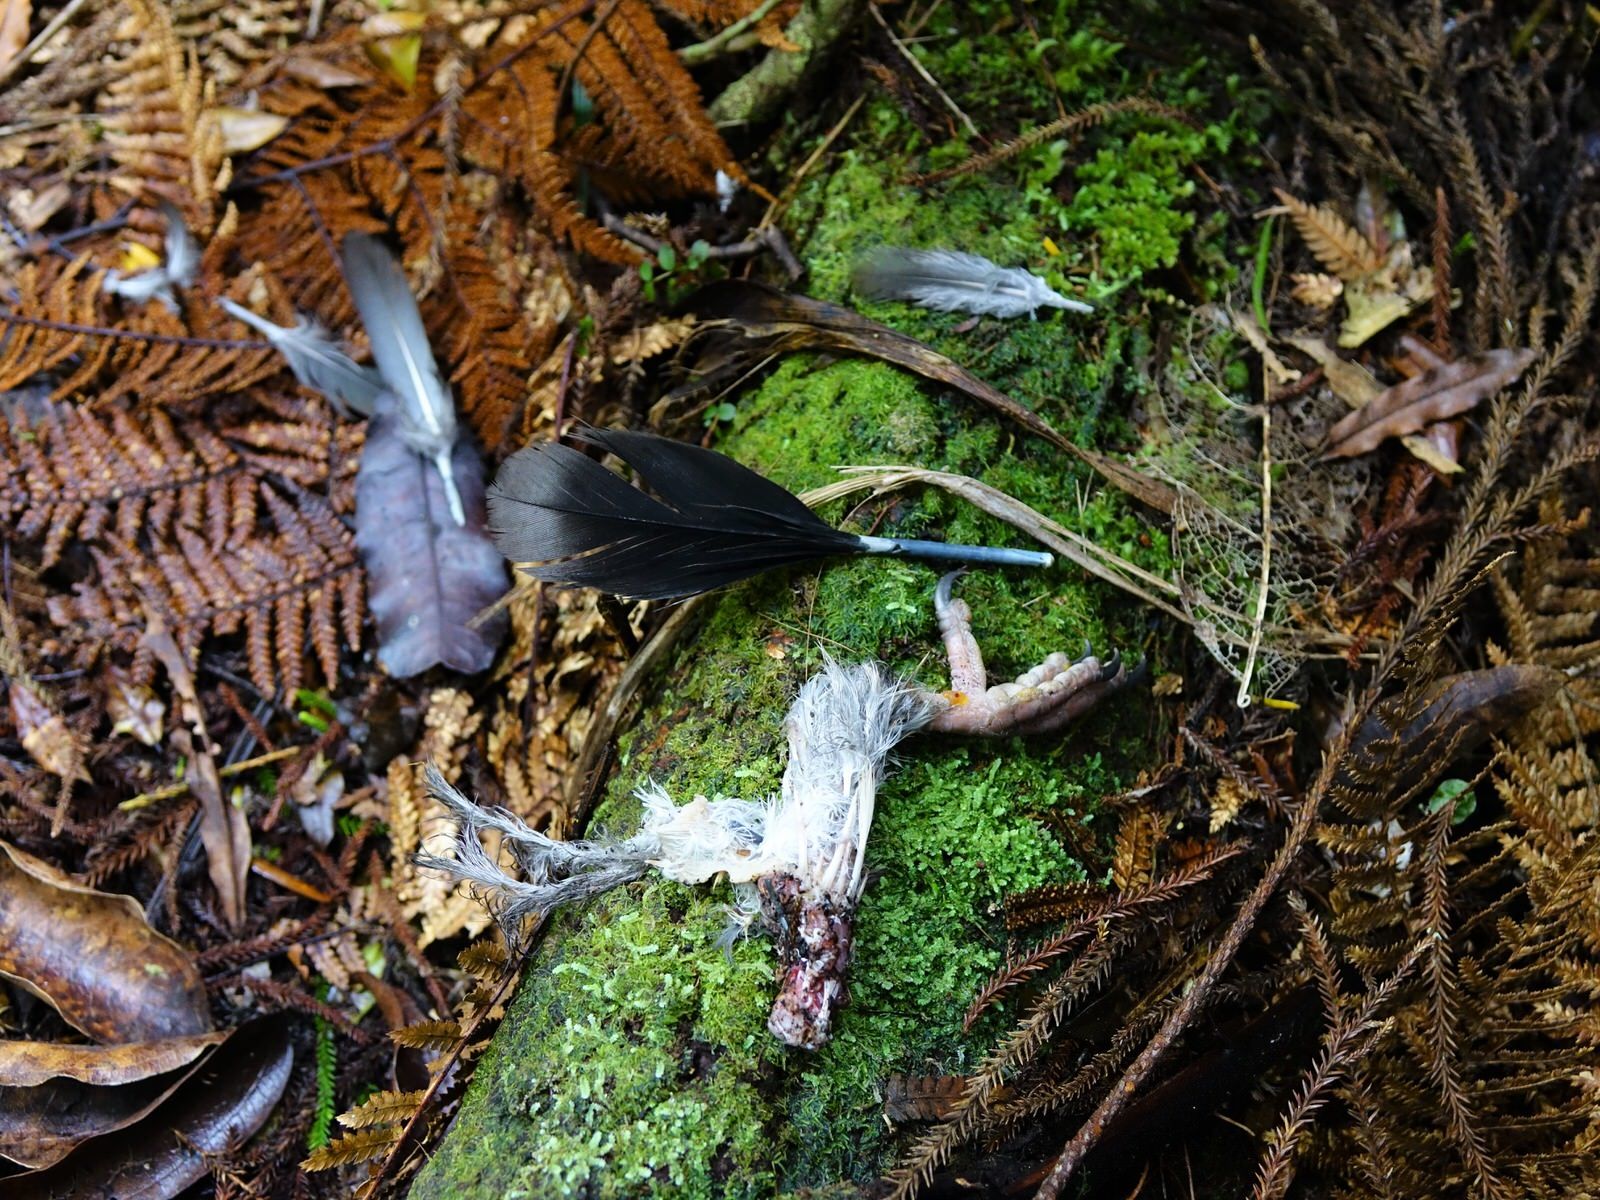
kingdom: Animalia
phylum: Chordata
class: Aves
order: Columbiformes
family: Columbidae
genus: Hemiphaga
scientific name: Hemiphaga novaeseelandiae
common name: New zealand pigeon
